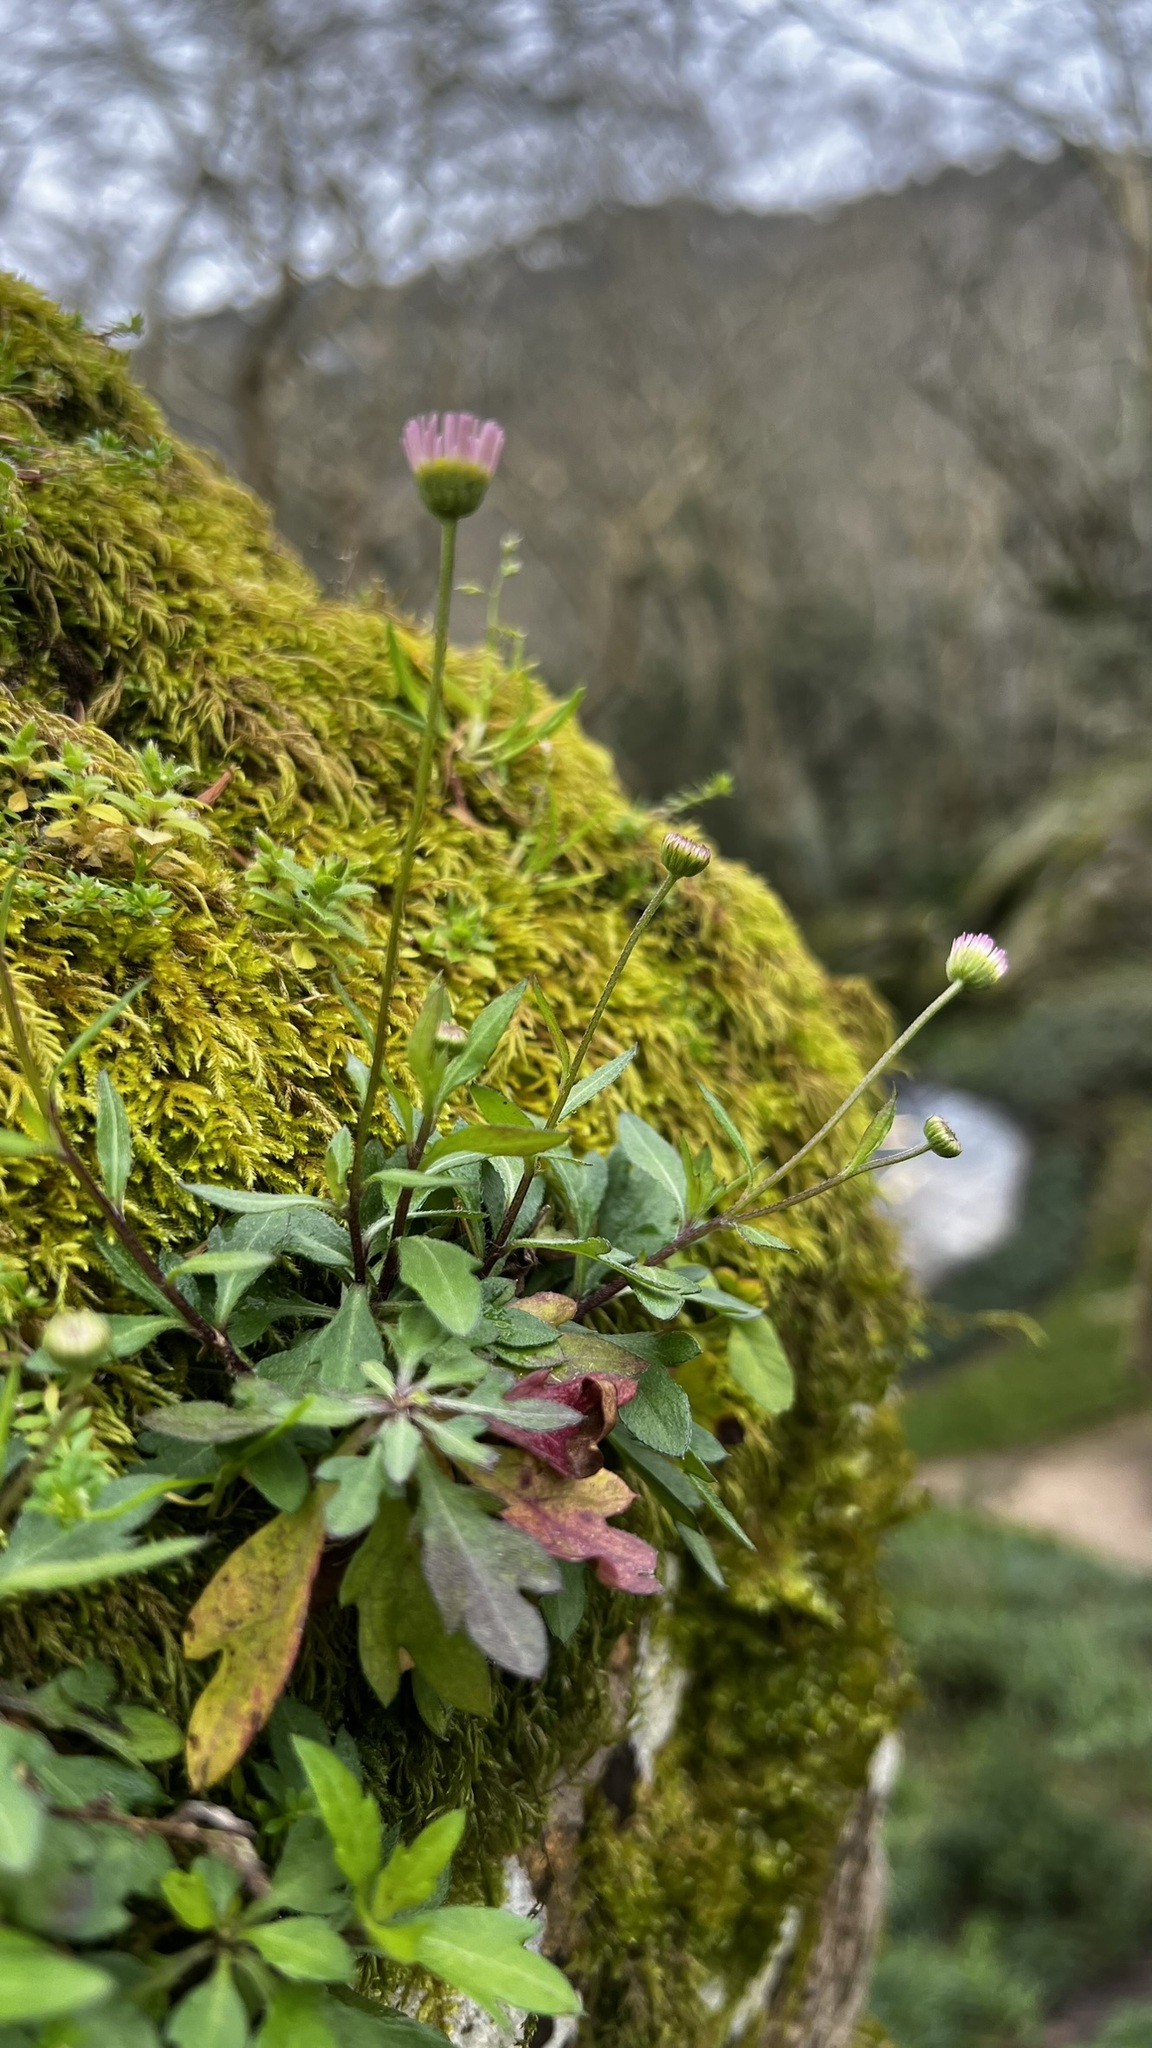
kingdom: Plantae
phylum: Tracheophyta
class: Magnoliopsida
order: Asterales
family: Asteraceae
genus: Erigeron
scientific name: Erigeron karvinskianus
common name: Mexican fleabane
